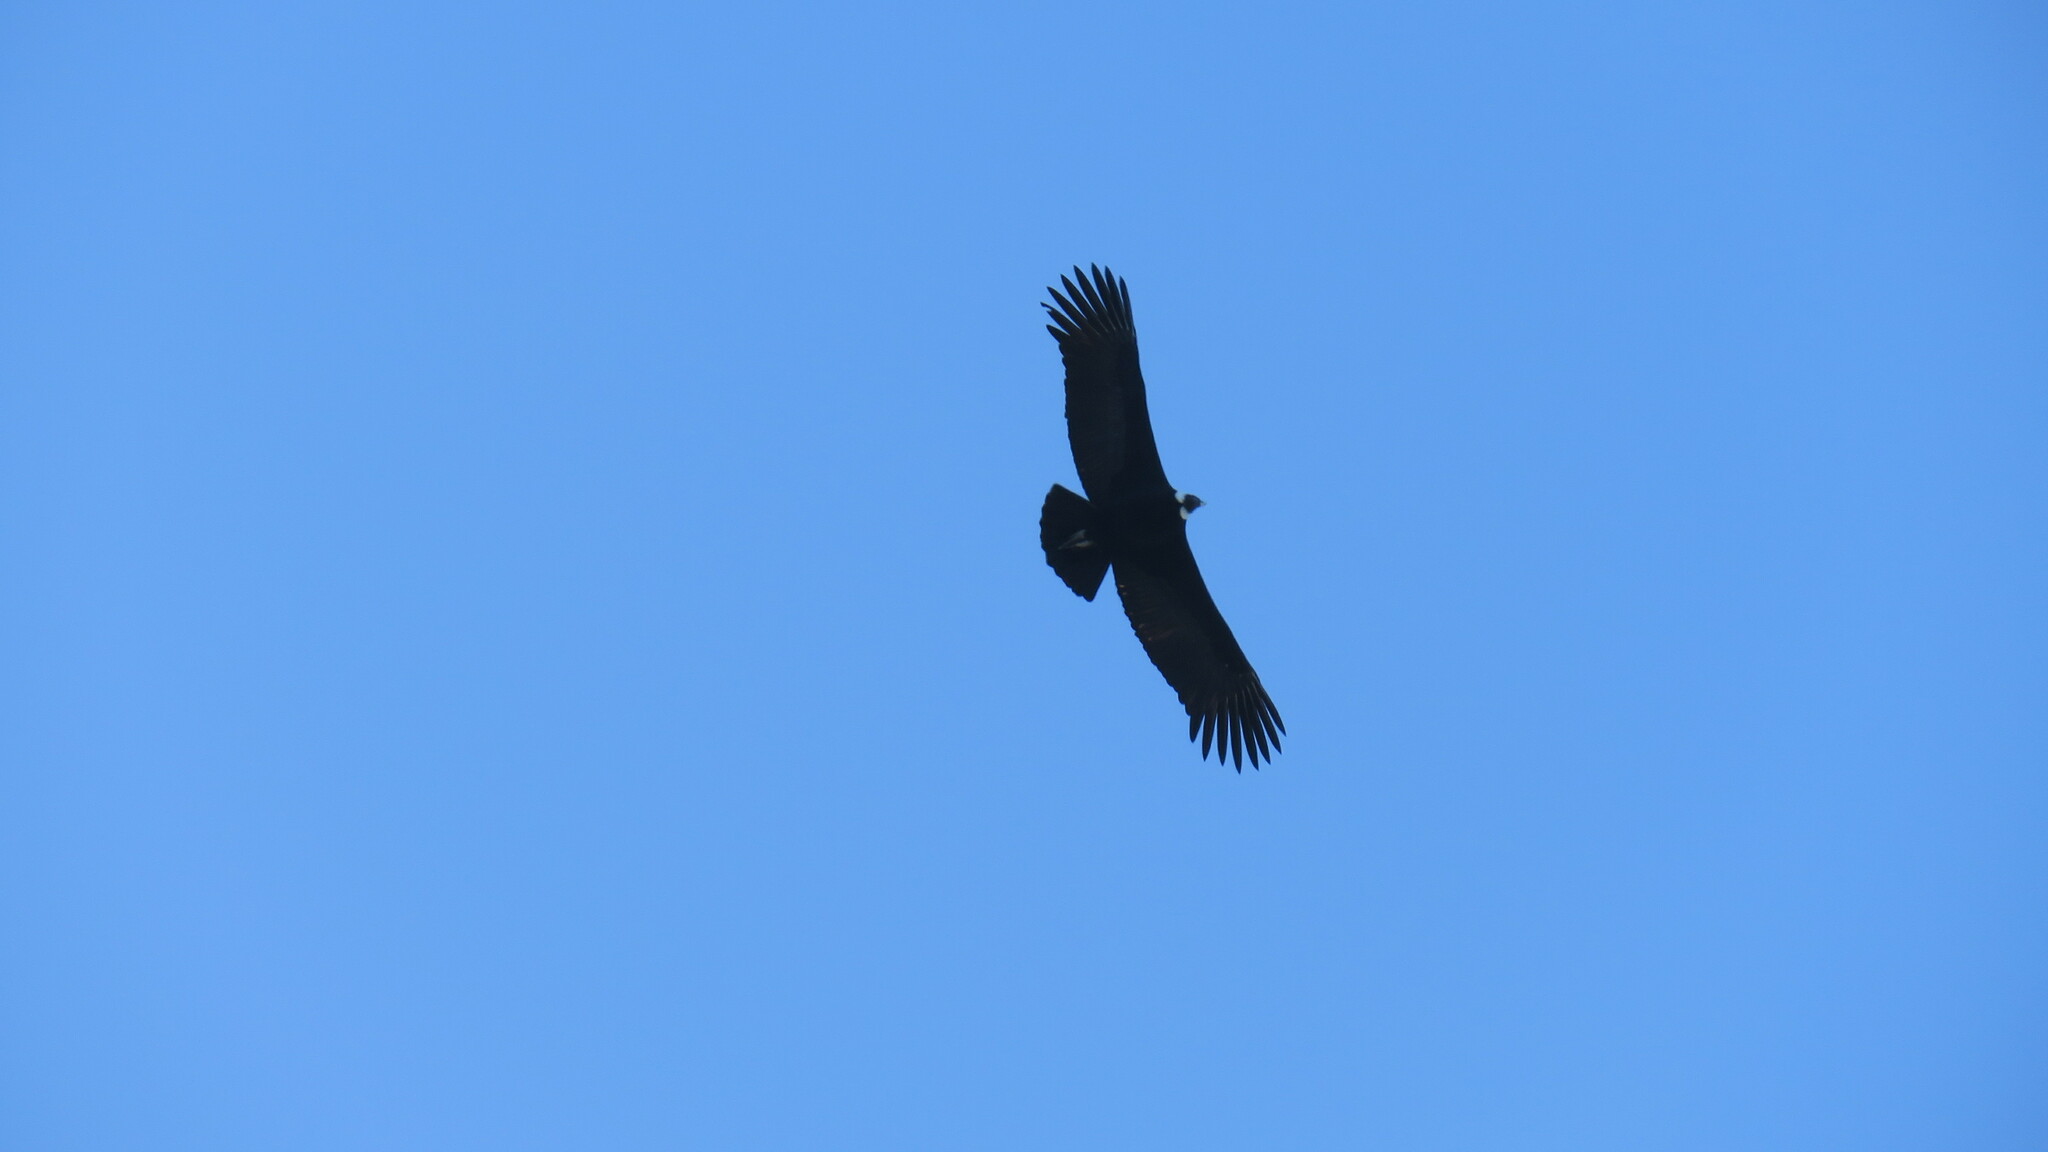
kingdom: Animalia
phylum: Chordata
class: Aves
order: Accipitriformes
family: Cathartidae
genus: Vultur
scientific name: Vultur gryphus
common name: Andean condor
